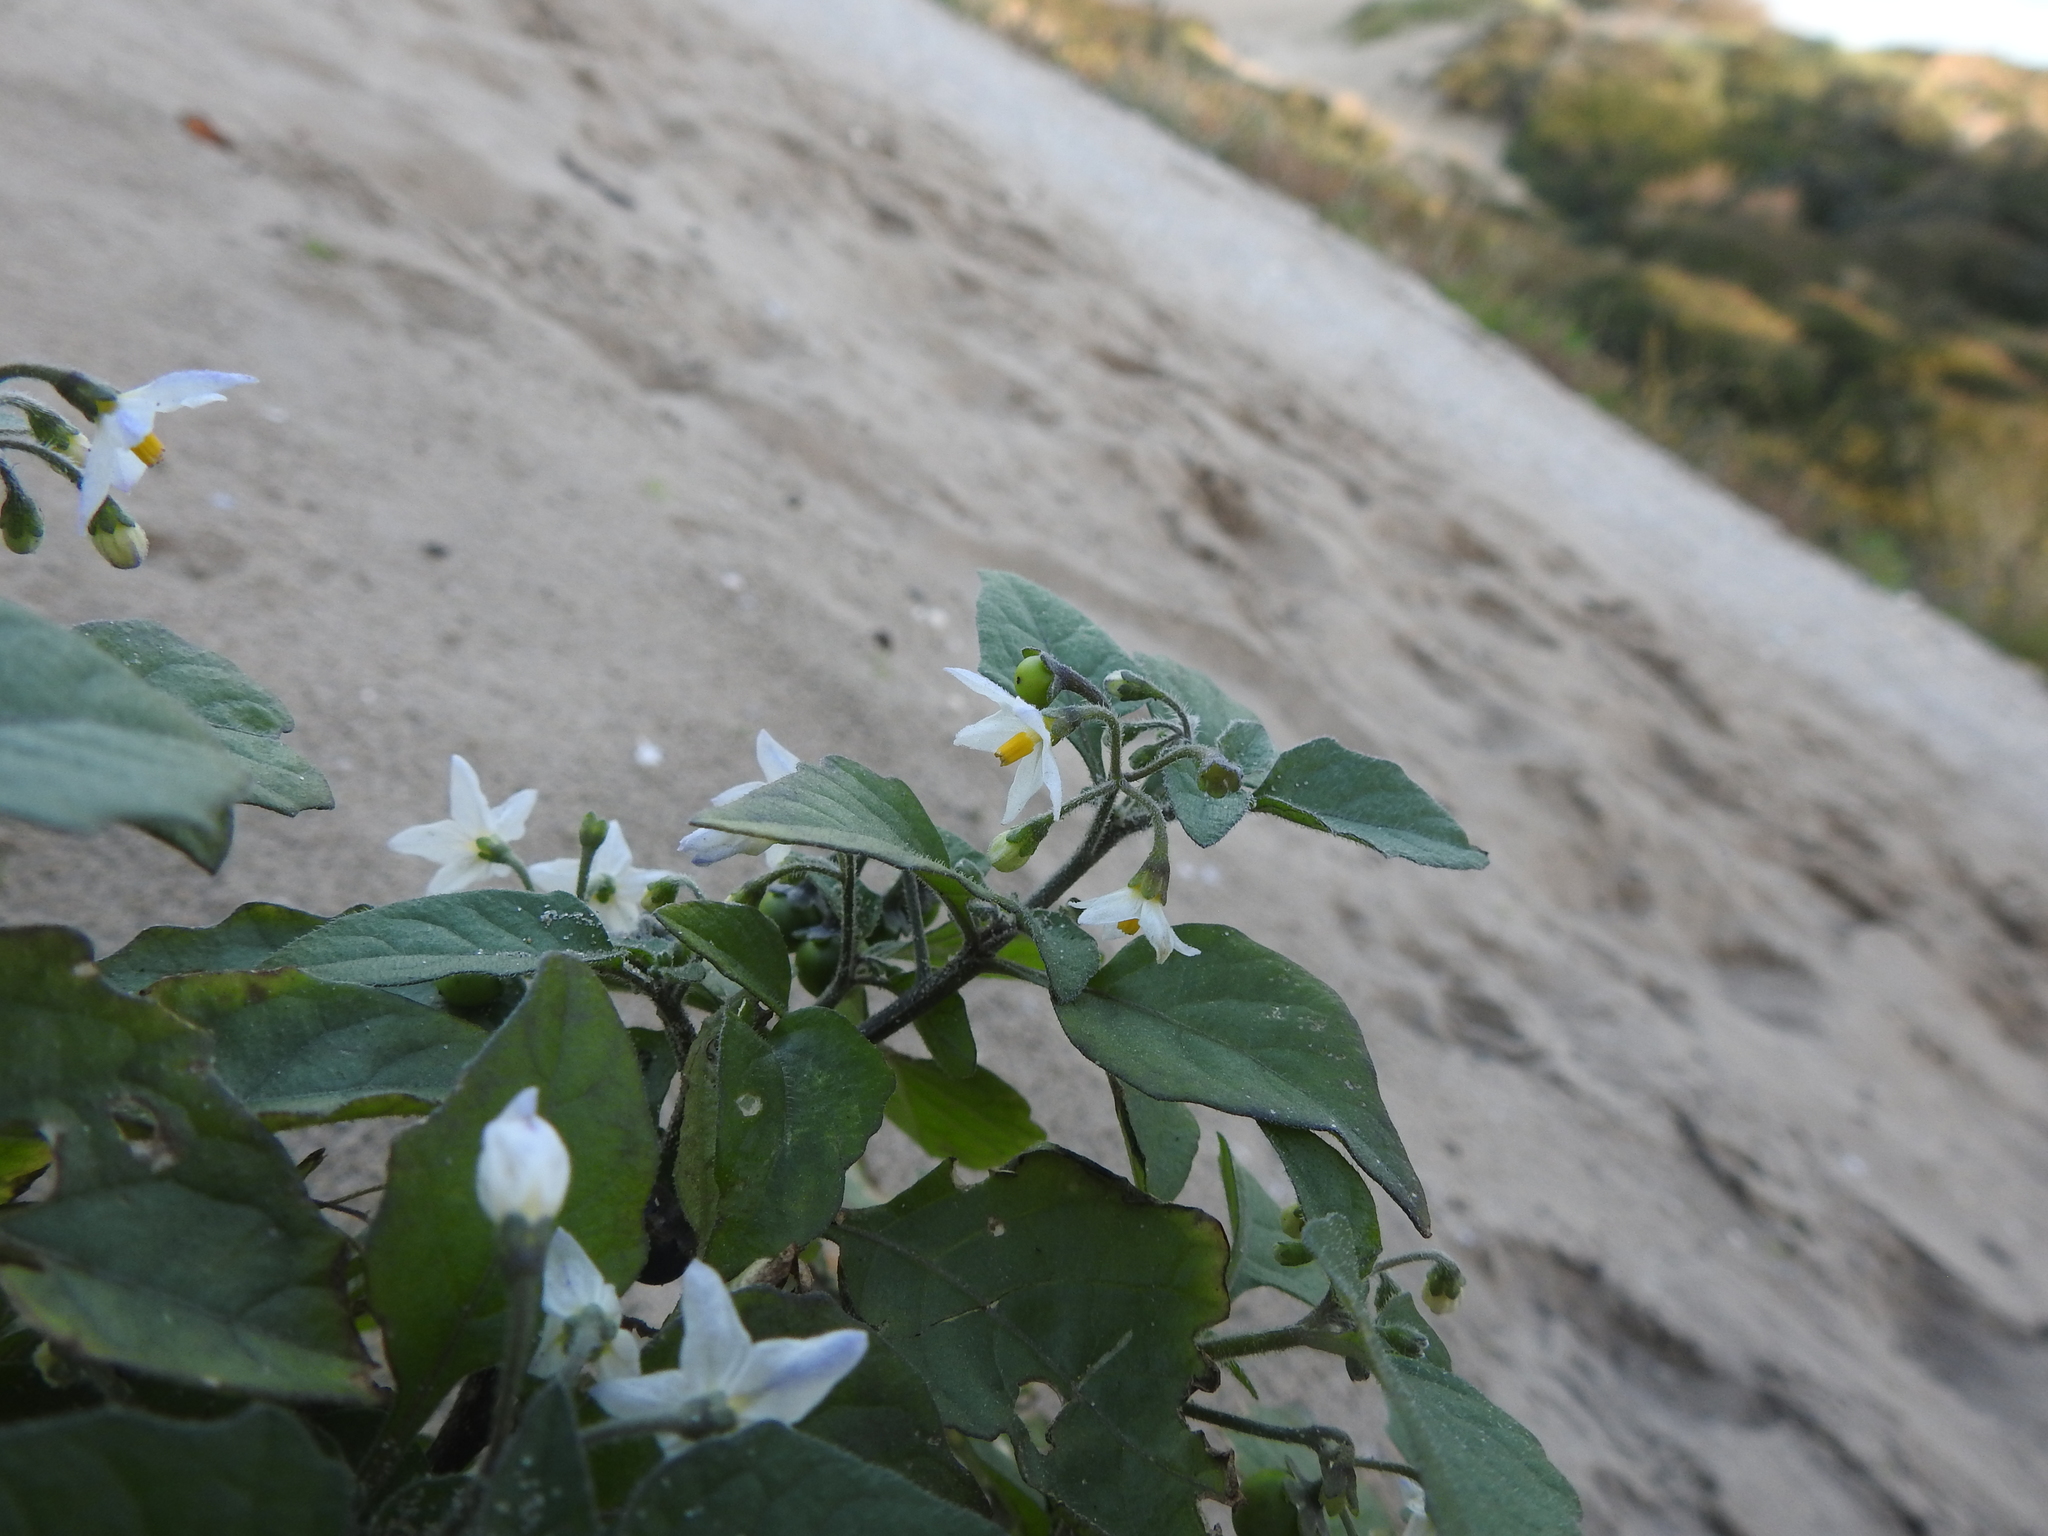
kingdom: Plantae
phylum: Tracheophyta
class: Magnoliopsida
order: Solanales
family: Solanaceae
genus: Solanum
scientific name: Solanum nigrum
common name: Black nightshade
